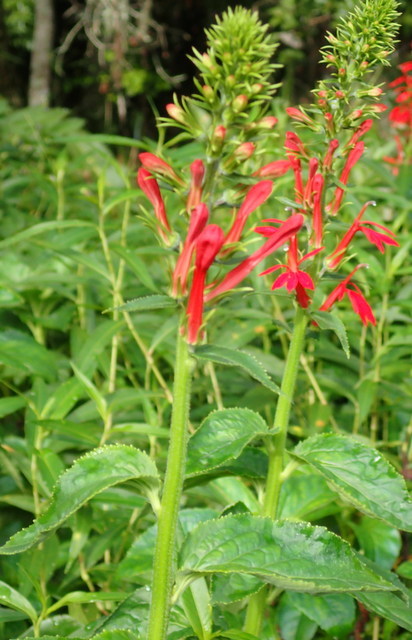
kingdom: Plantae
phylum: Tracheophyta
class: Magnoliopsida
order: Asterales
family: Campanulaceae
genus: Lobelia
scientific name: Lobelia cardinalis
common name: Cardinal flower
